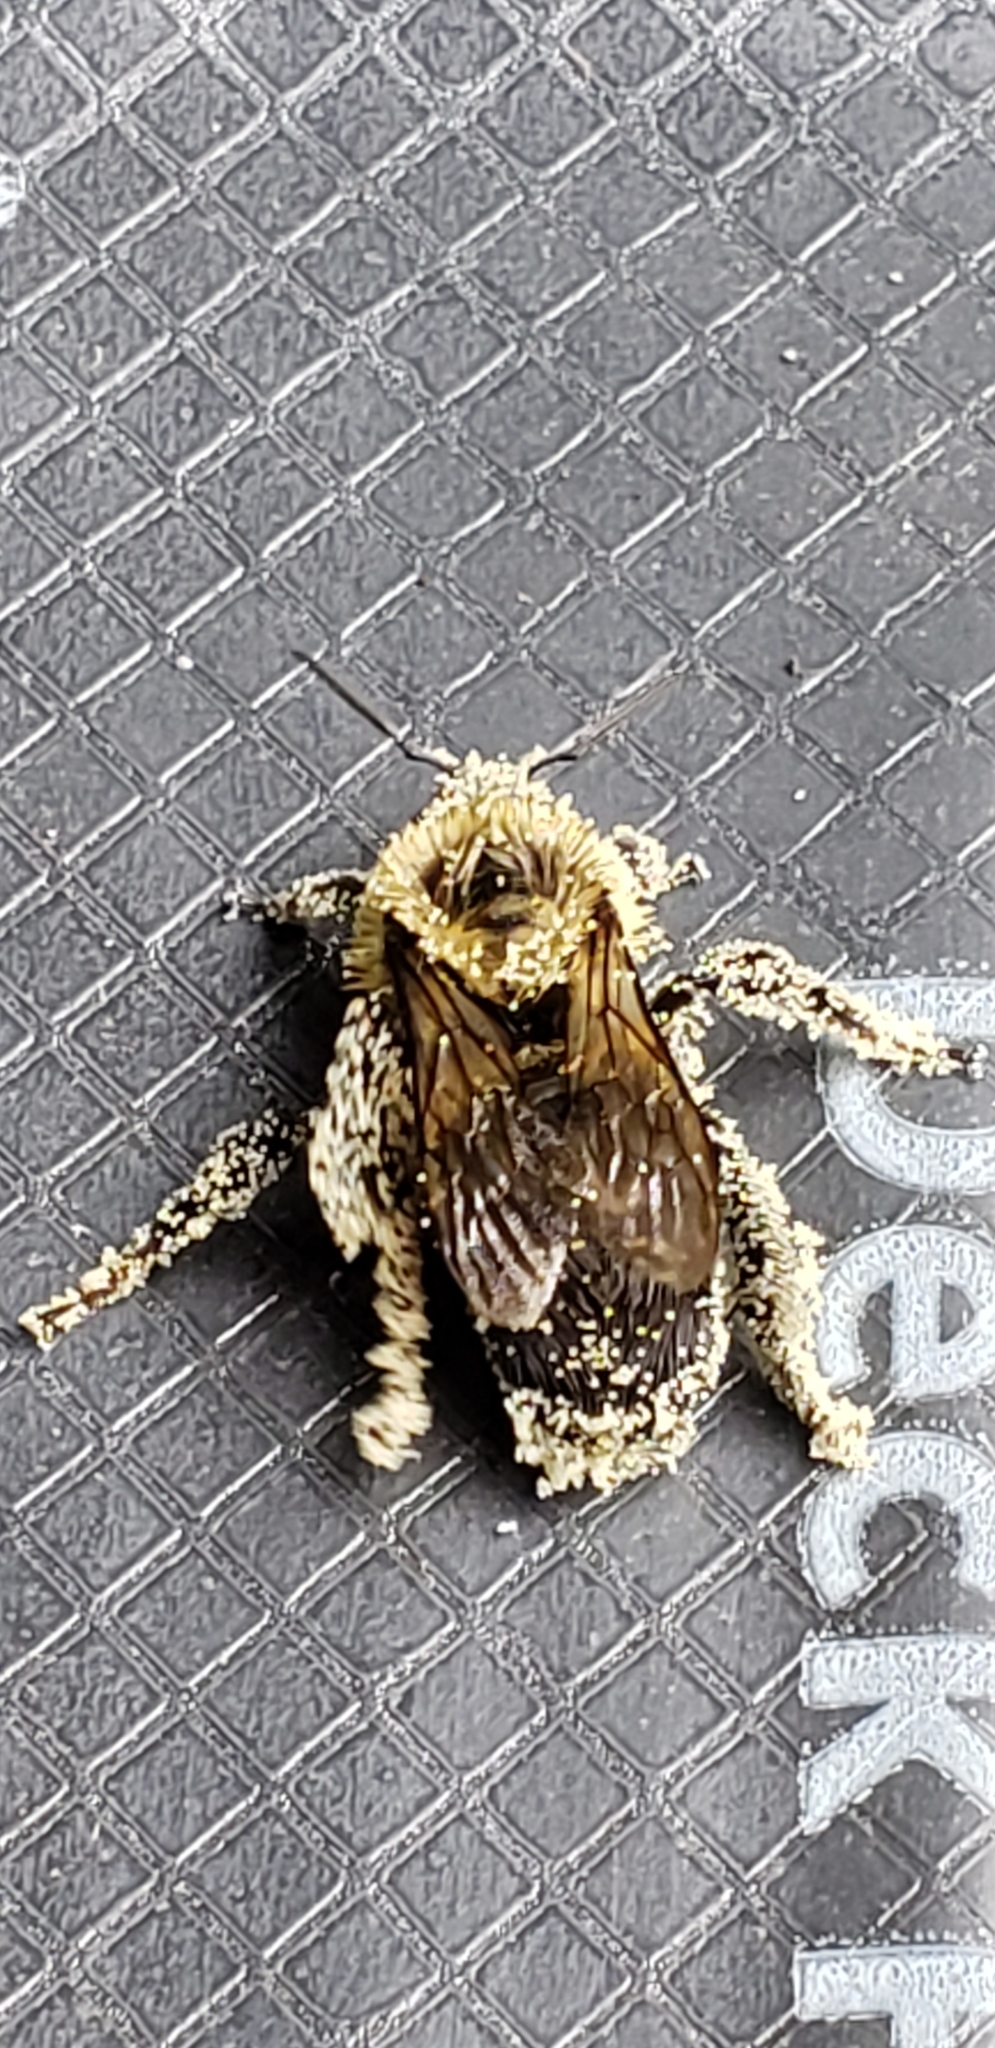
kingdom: Animalia
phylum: Arthropoda
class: Insecta
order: Hymenoptera
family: Apidae
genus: Bombus
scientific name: Bombus impatiens
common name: Common eastern bumble bee
